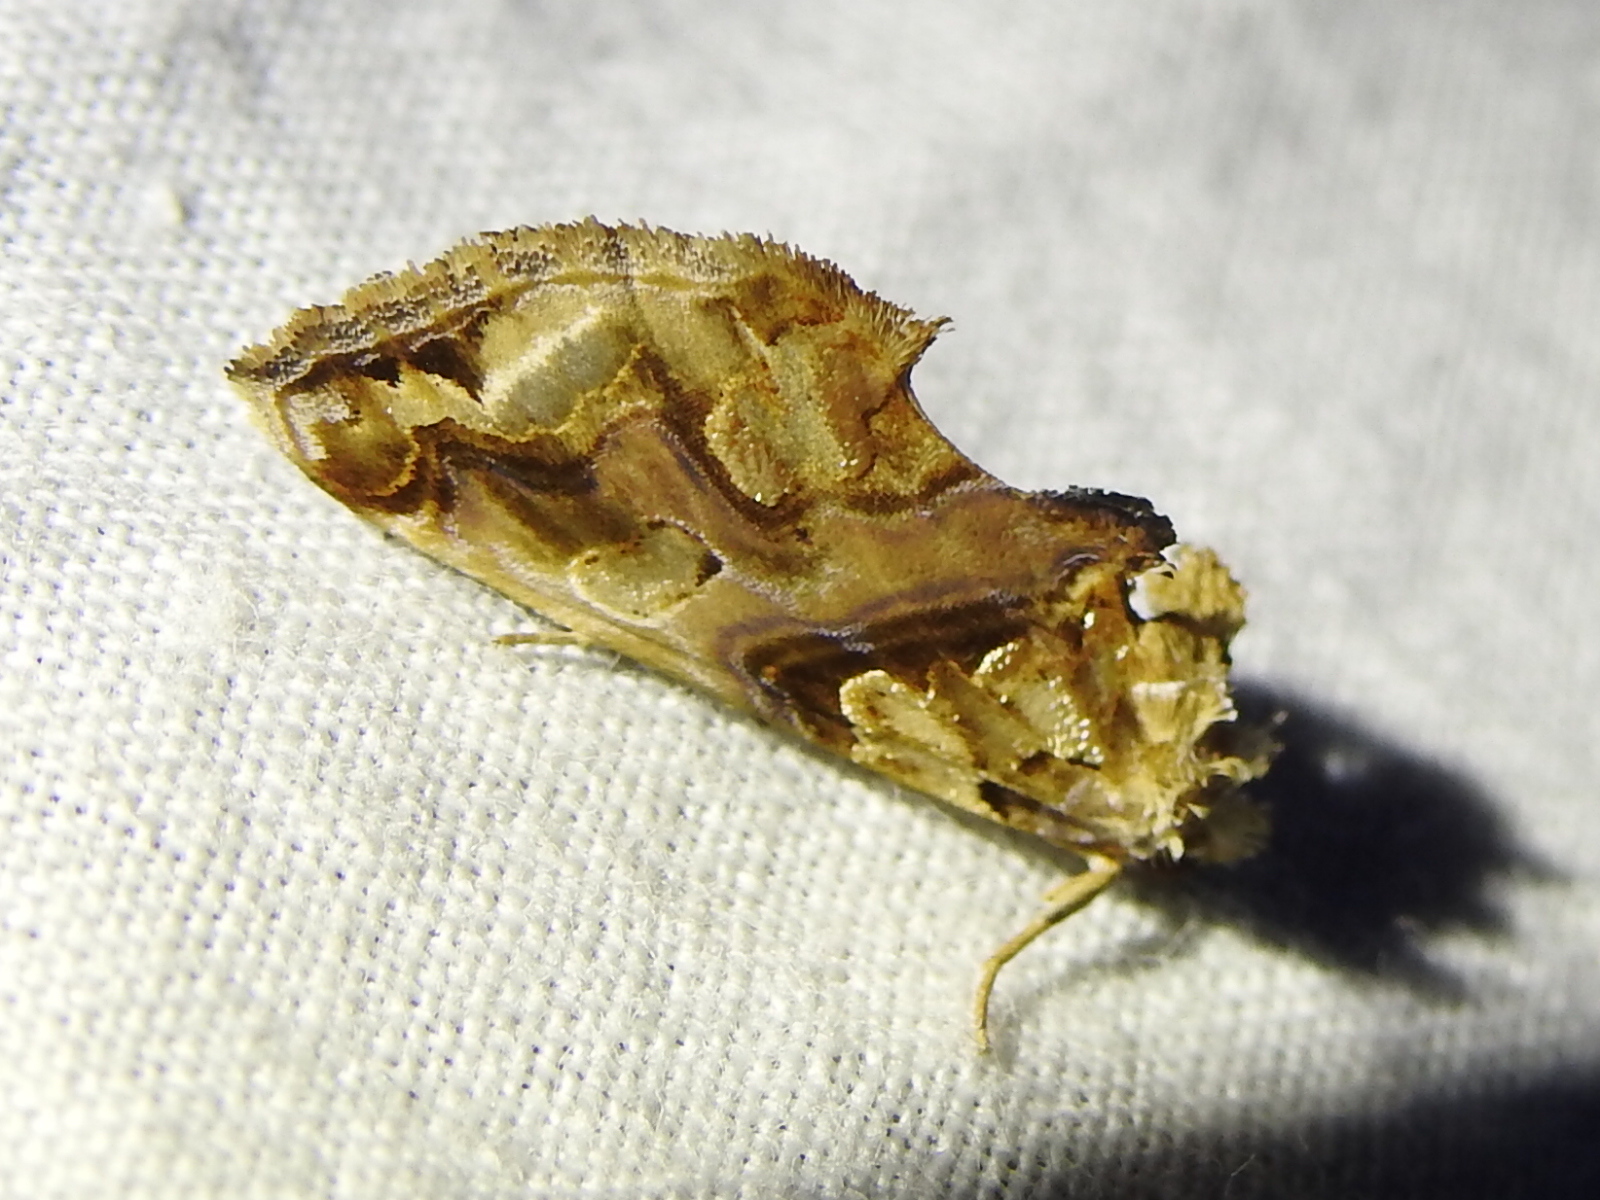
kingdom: Animalia
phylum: Arthropoda
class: Insecta
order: Lepidoptera
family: Erebidae
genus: Plusiodonta
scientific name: Plusiodonta compressipalpis
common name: Moonseed moth
